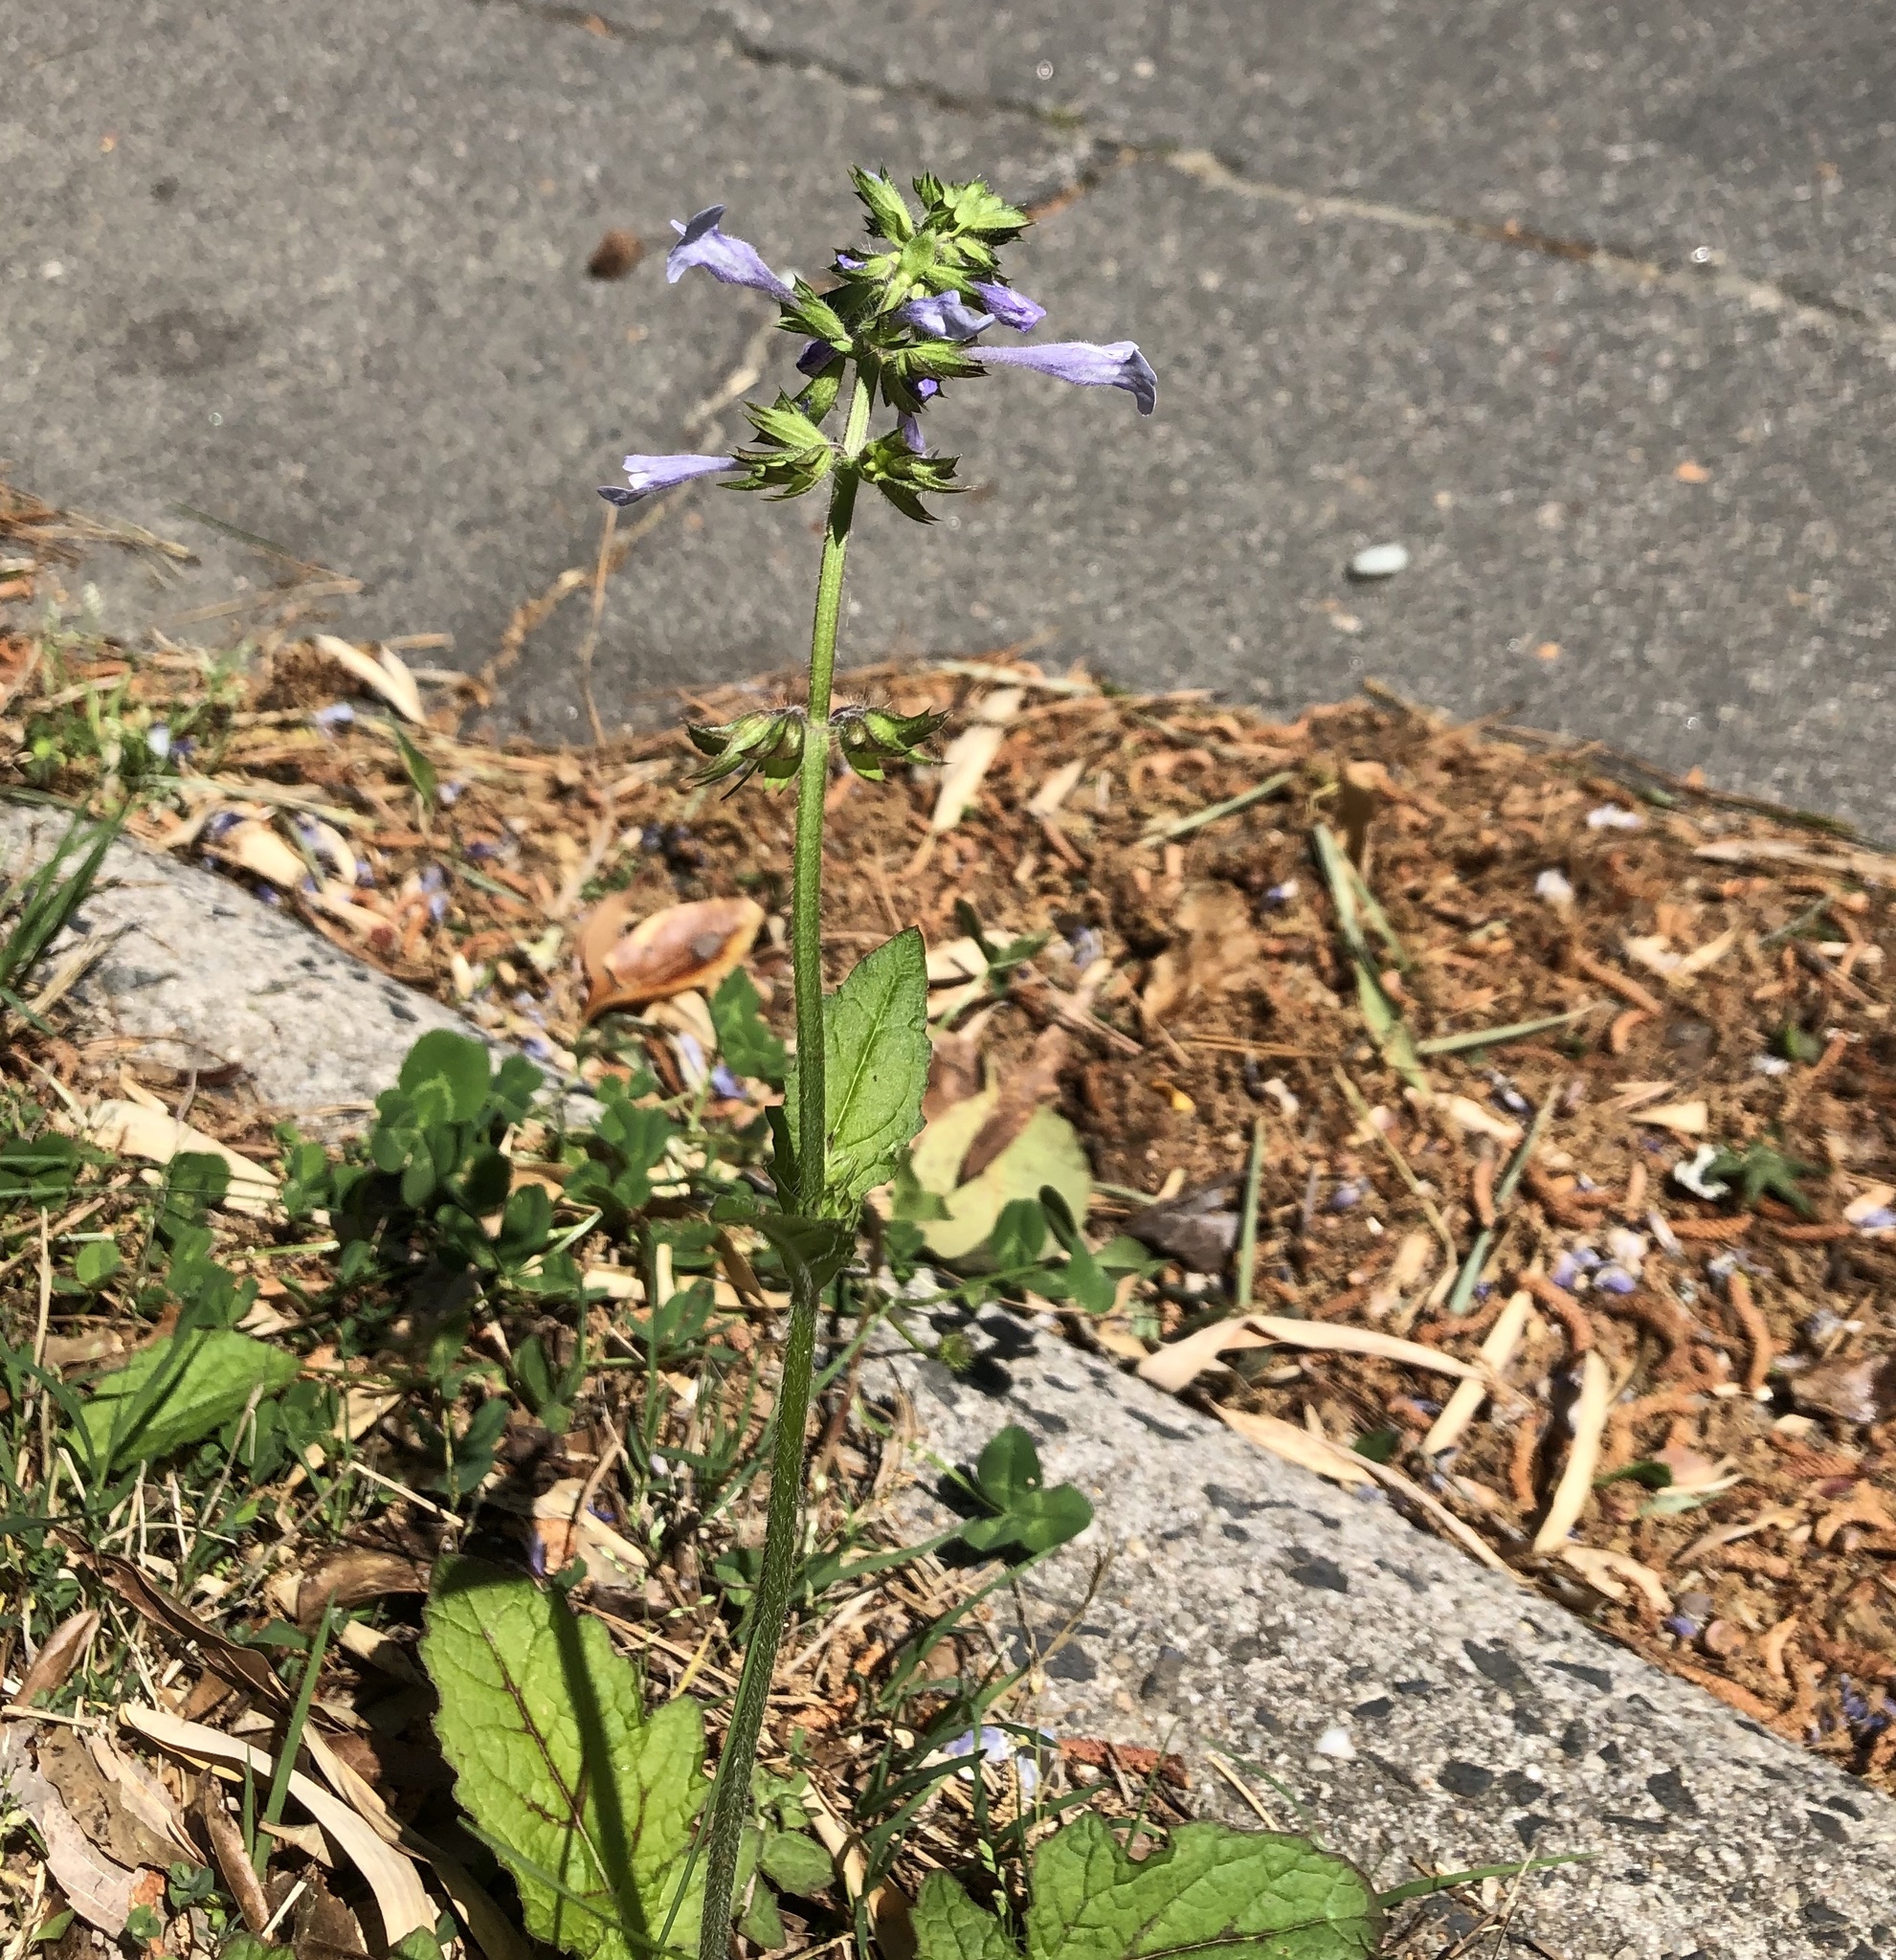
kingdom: Plantae
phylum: Tracheophyta
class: Magnoliopsida
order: Lamiales
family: Lamiaceae
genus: Salvia
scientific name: Salvia lyrata
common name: Cancerweed
